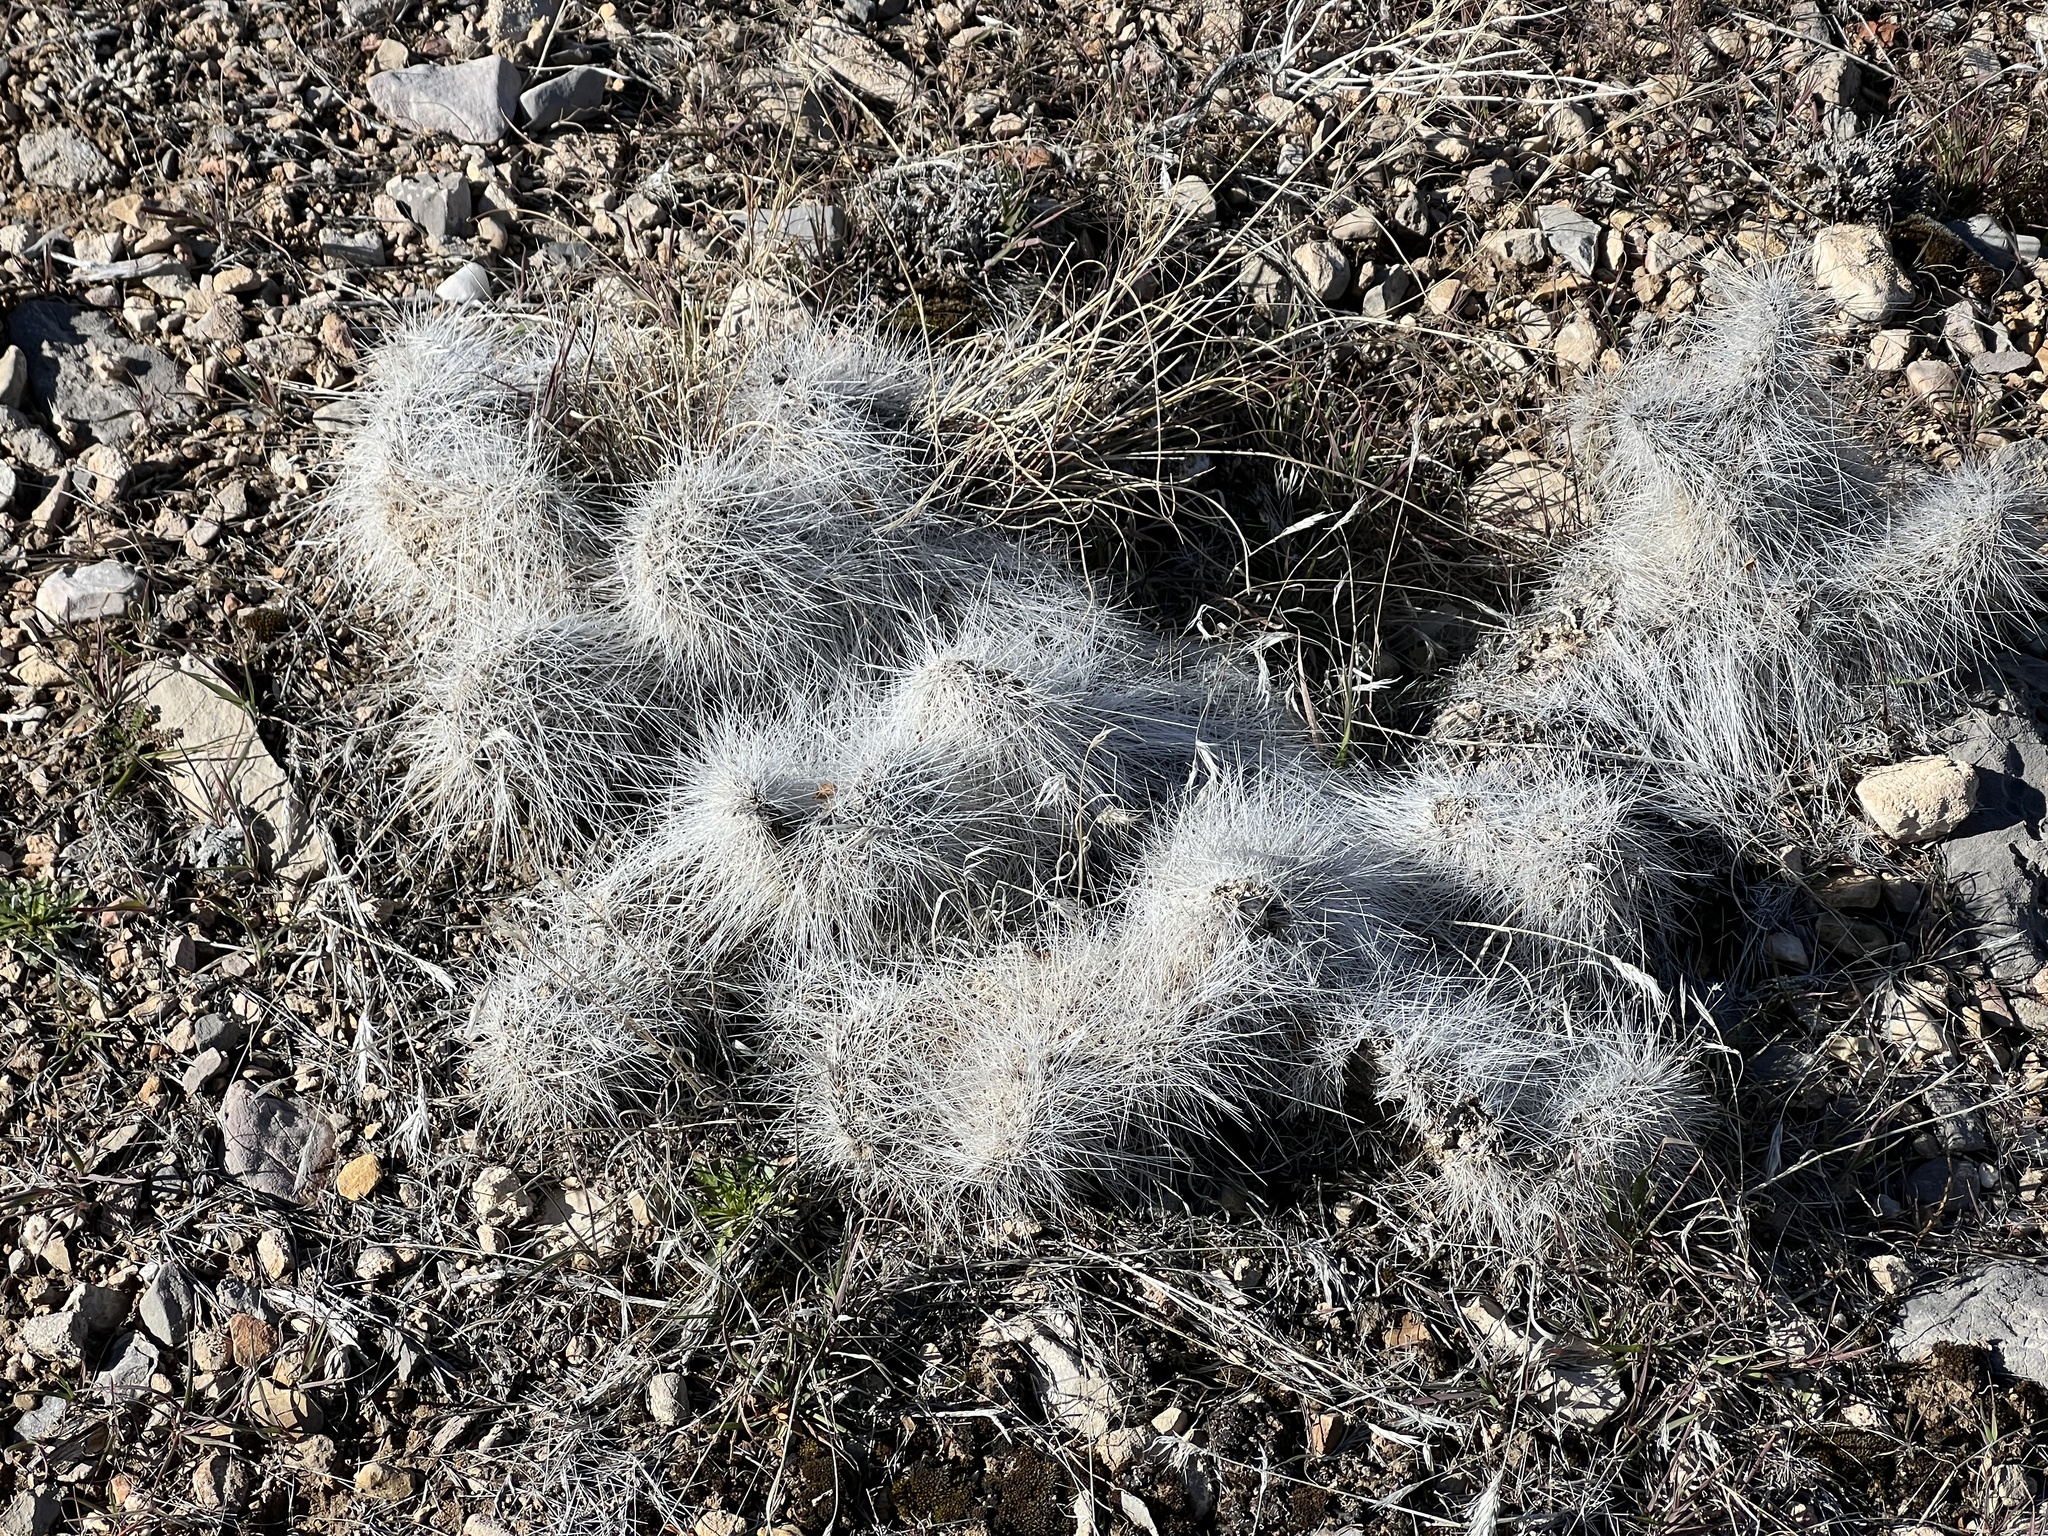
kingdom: Plantae
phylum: Tracheophyta
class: Magnoliopsida
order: Caryophyllales
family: Cactaceae
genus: Opuntia
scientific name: Opuntia polyacantha
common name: Plains prickly-pear
